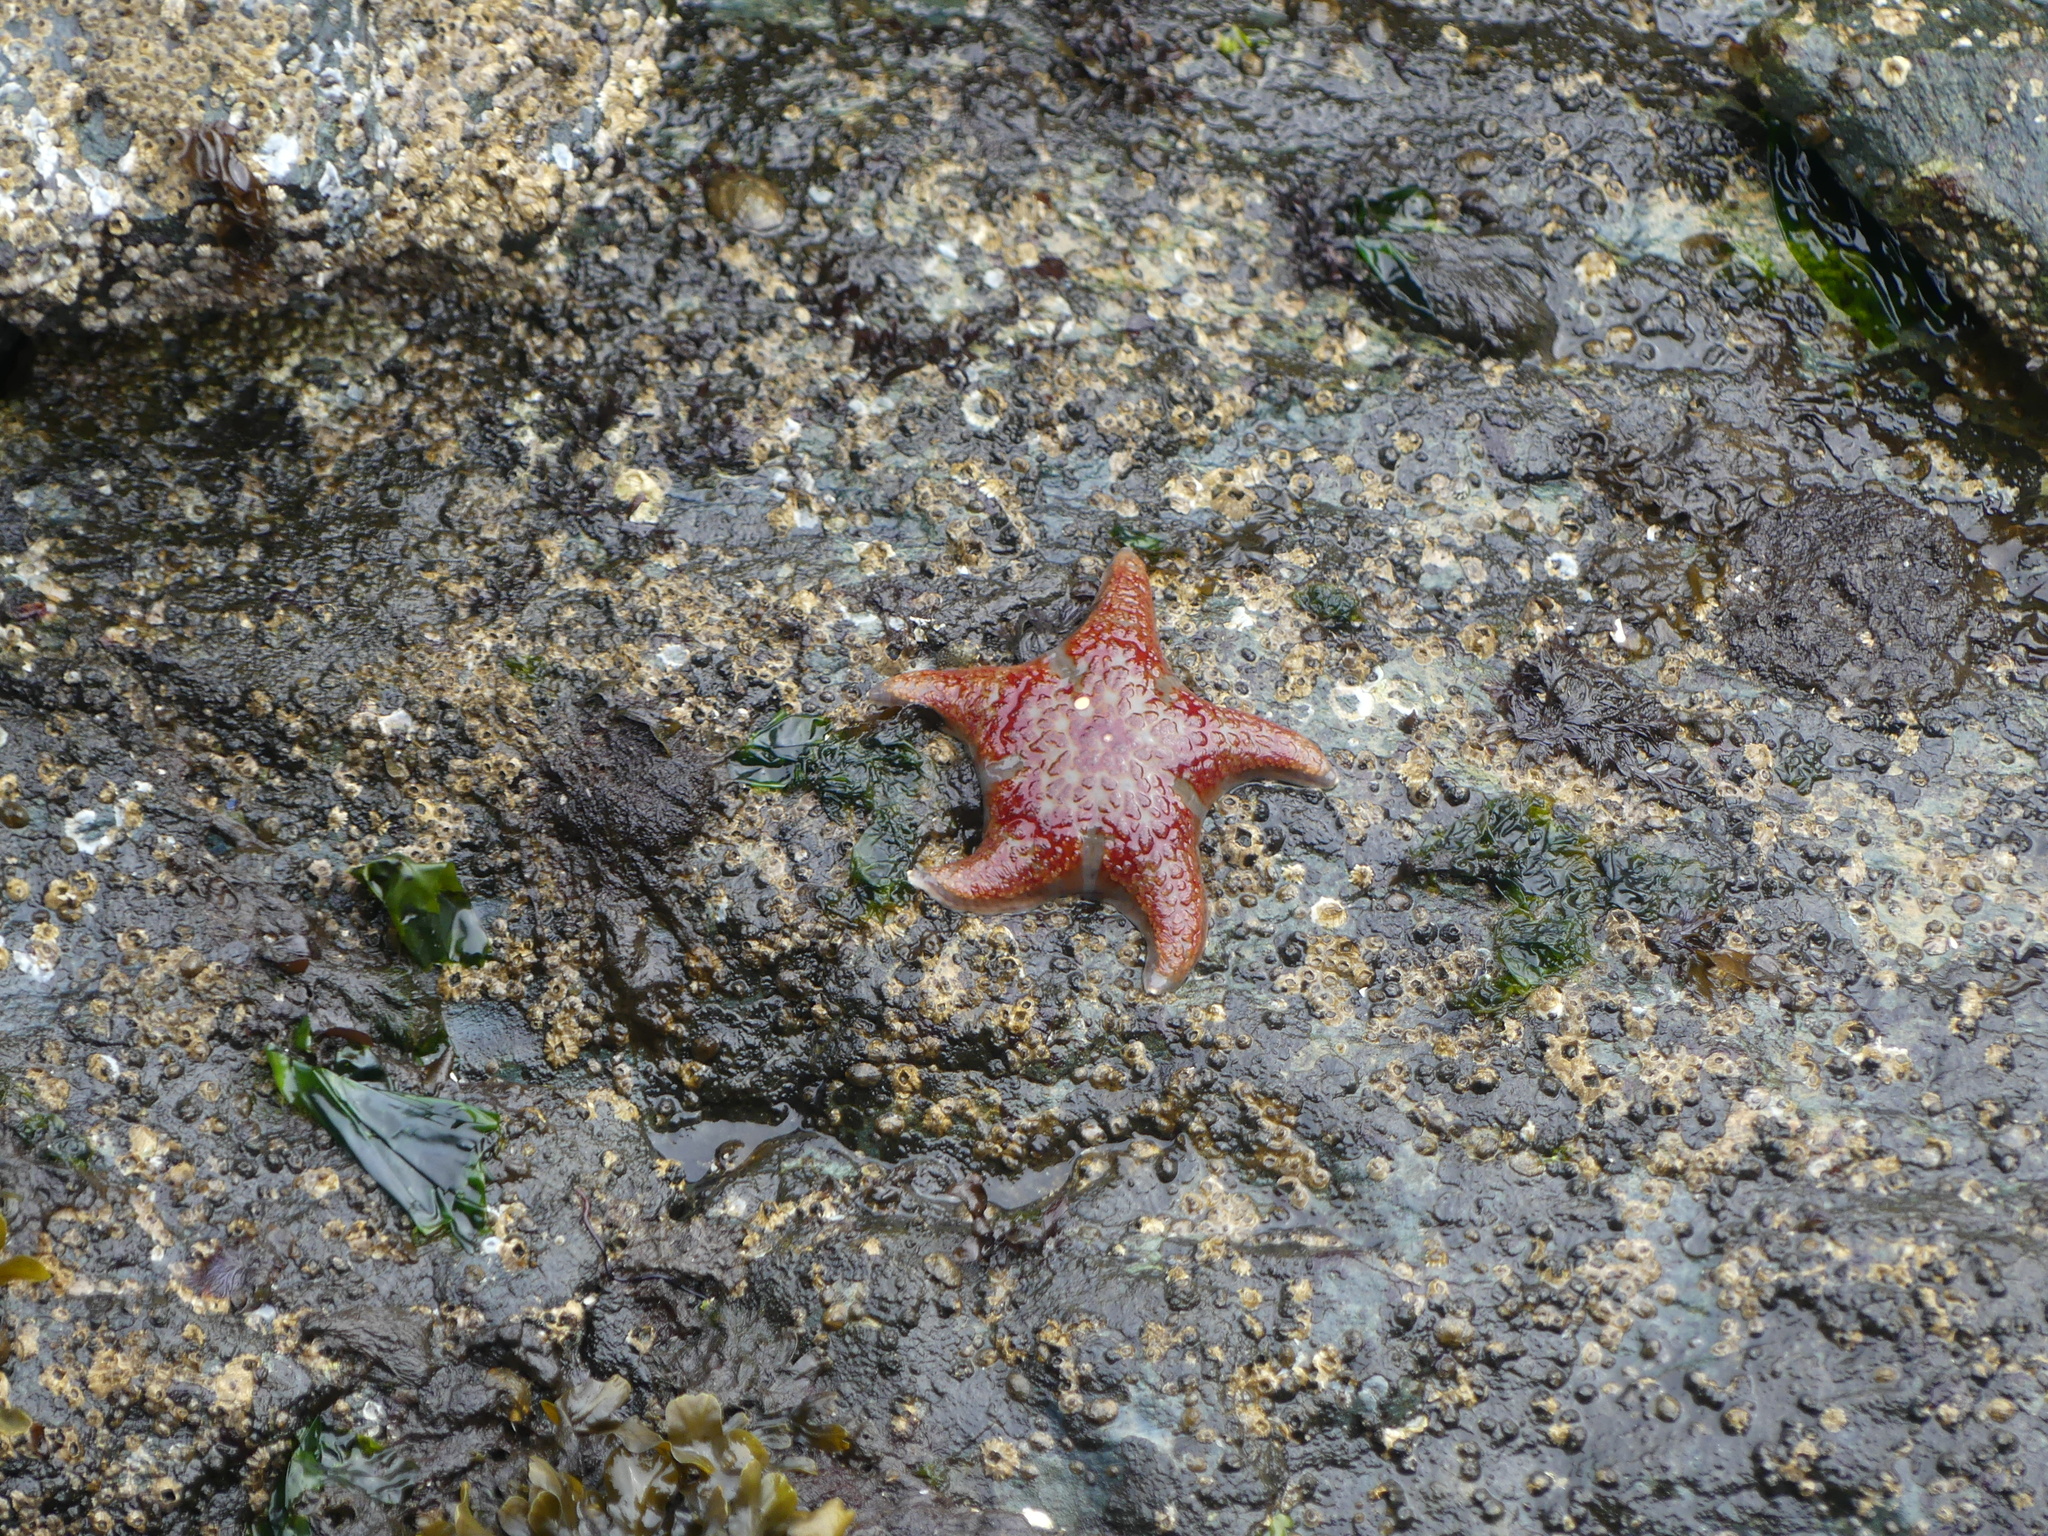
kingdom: Animalia
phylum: Echinodermata
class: Asteroidea
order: Valvatida
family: Asteropseidae
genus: Dermasterias
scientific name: Dermasterias imbricata
